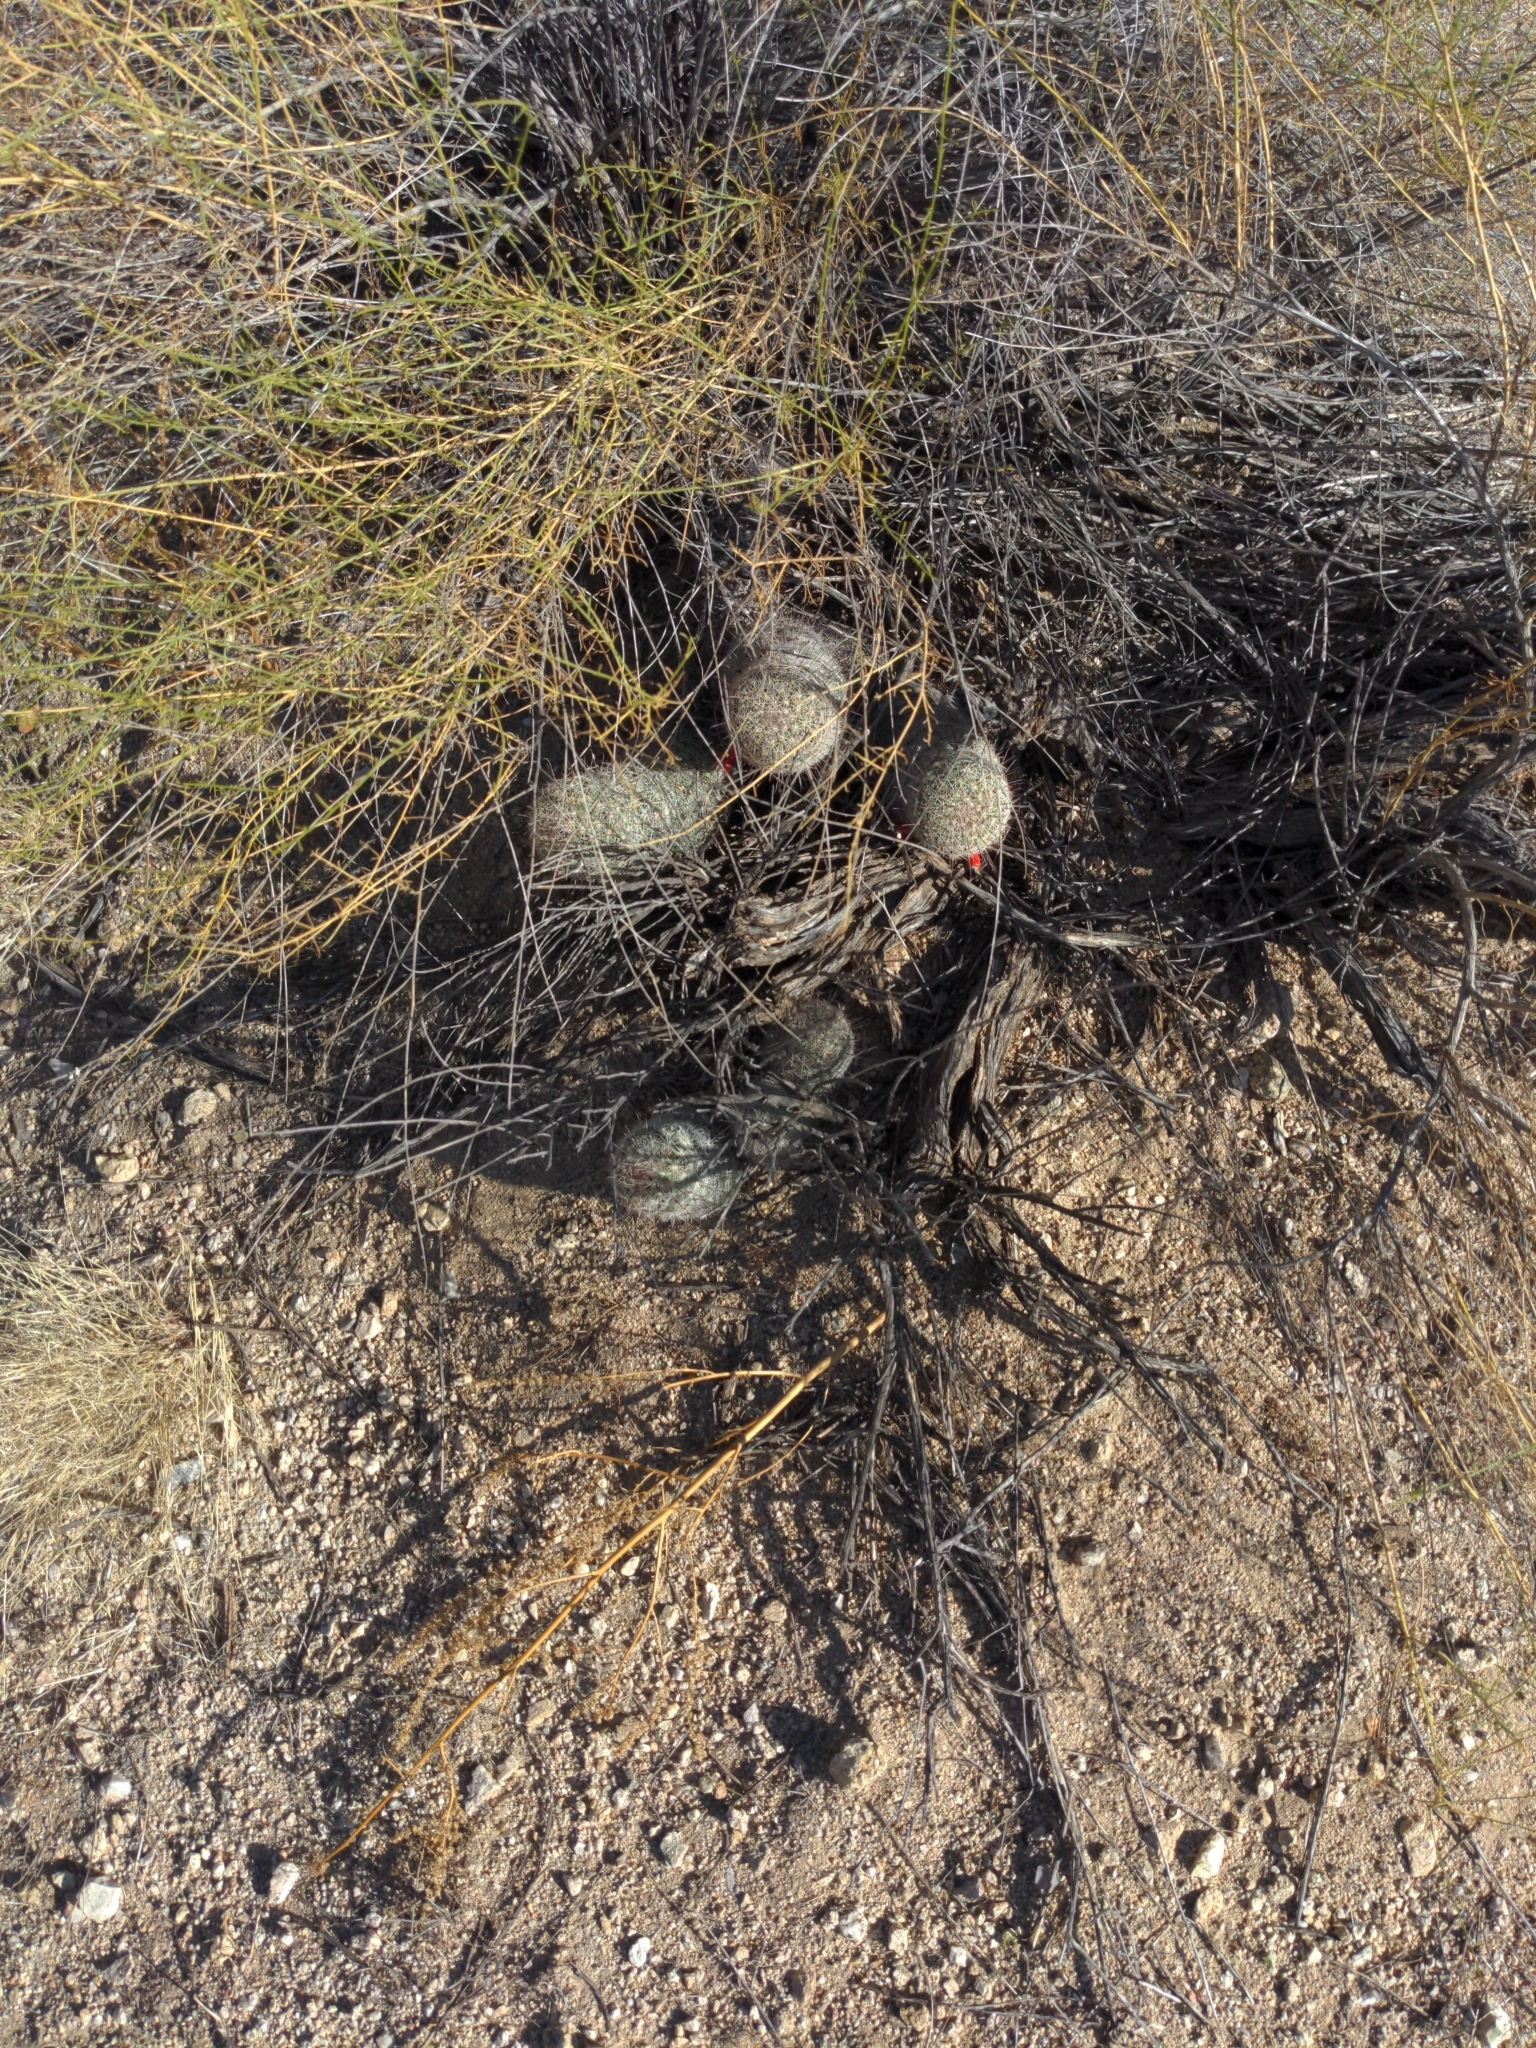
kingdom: Plantae
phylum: Tracheophyta
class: Magnoliopsida
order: Caryophyllales
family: Cactaceae
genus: Cochemiea
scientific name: Cochemiea grahamii
